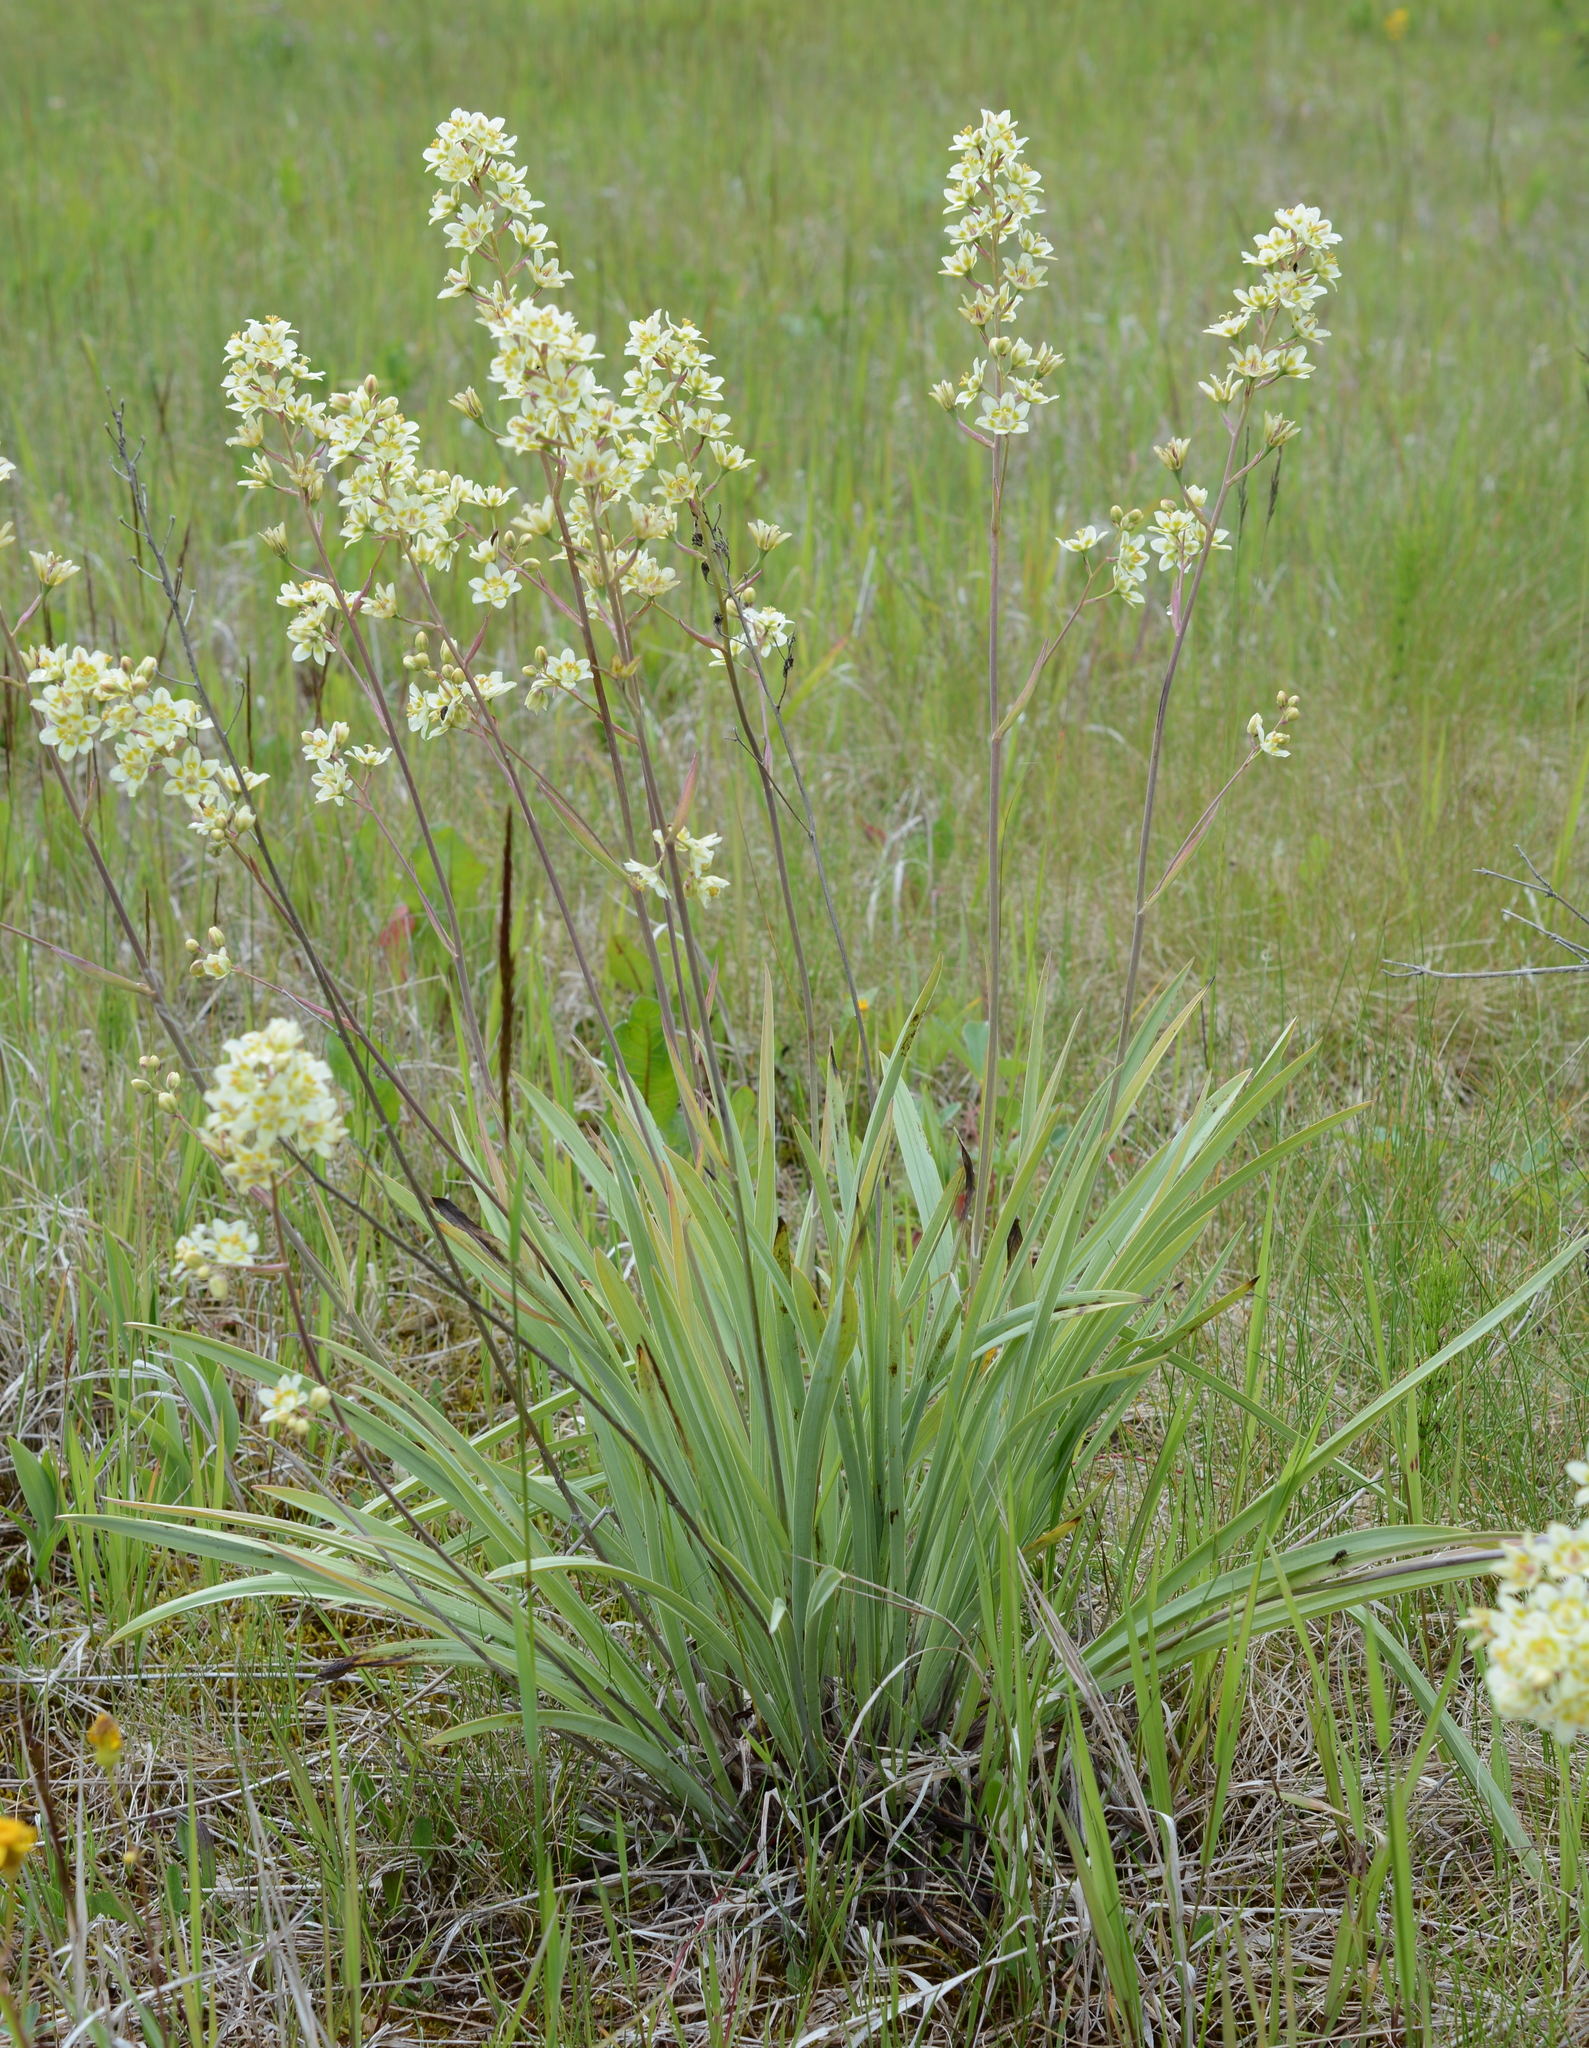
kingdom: Plantae
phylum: Tracheophyta
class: Liliopsida
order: Liliales
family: Melanthiaceae
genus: Anticlea
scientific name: Anticlea elegans
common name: Mountain death camas
